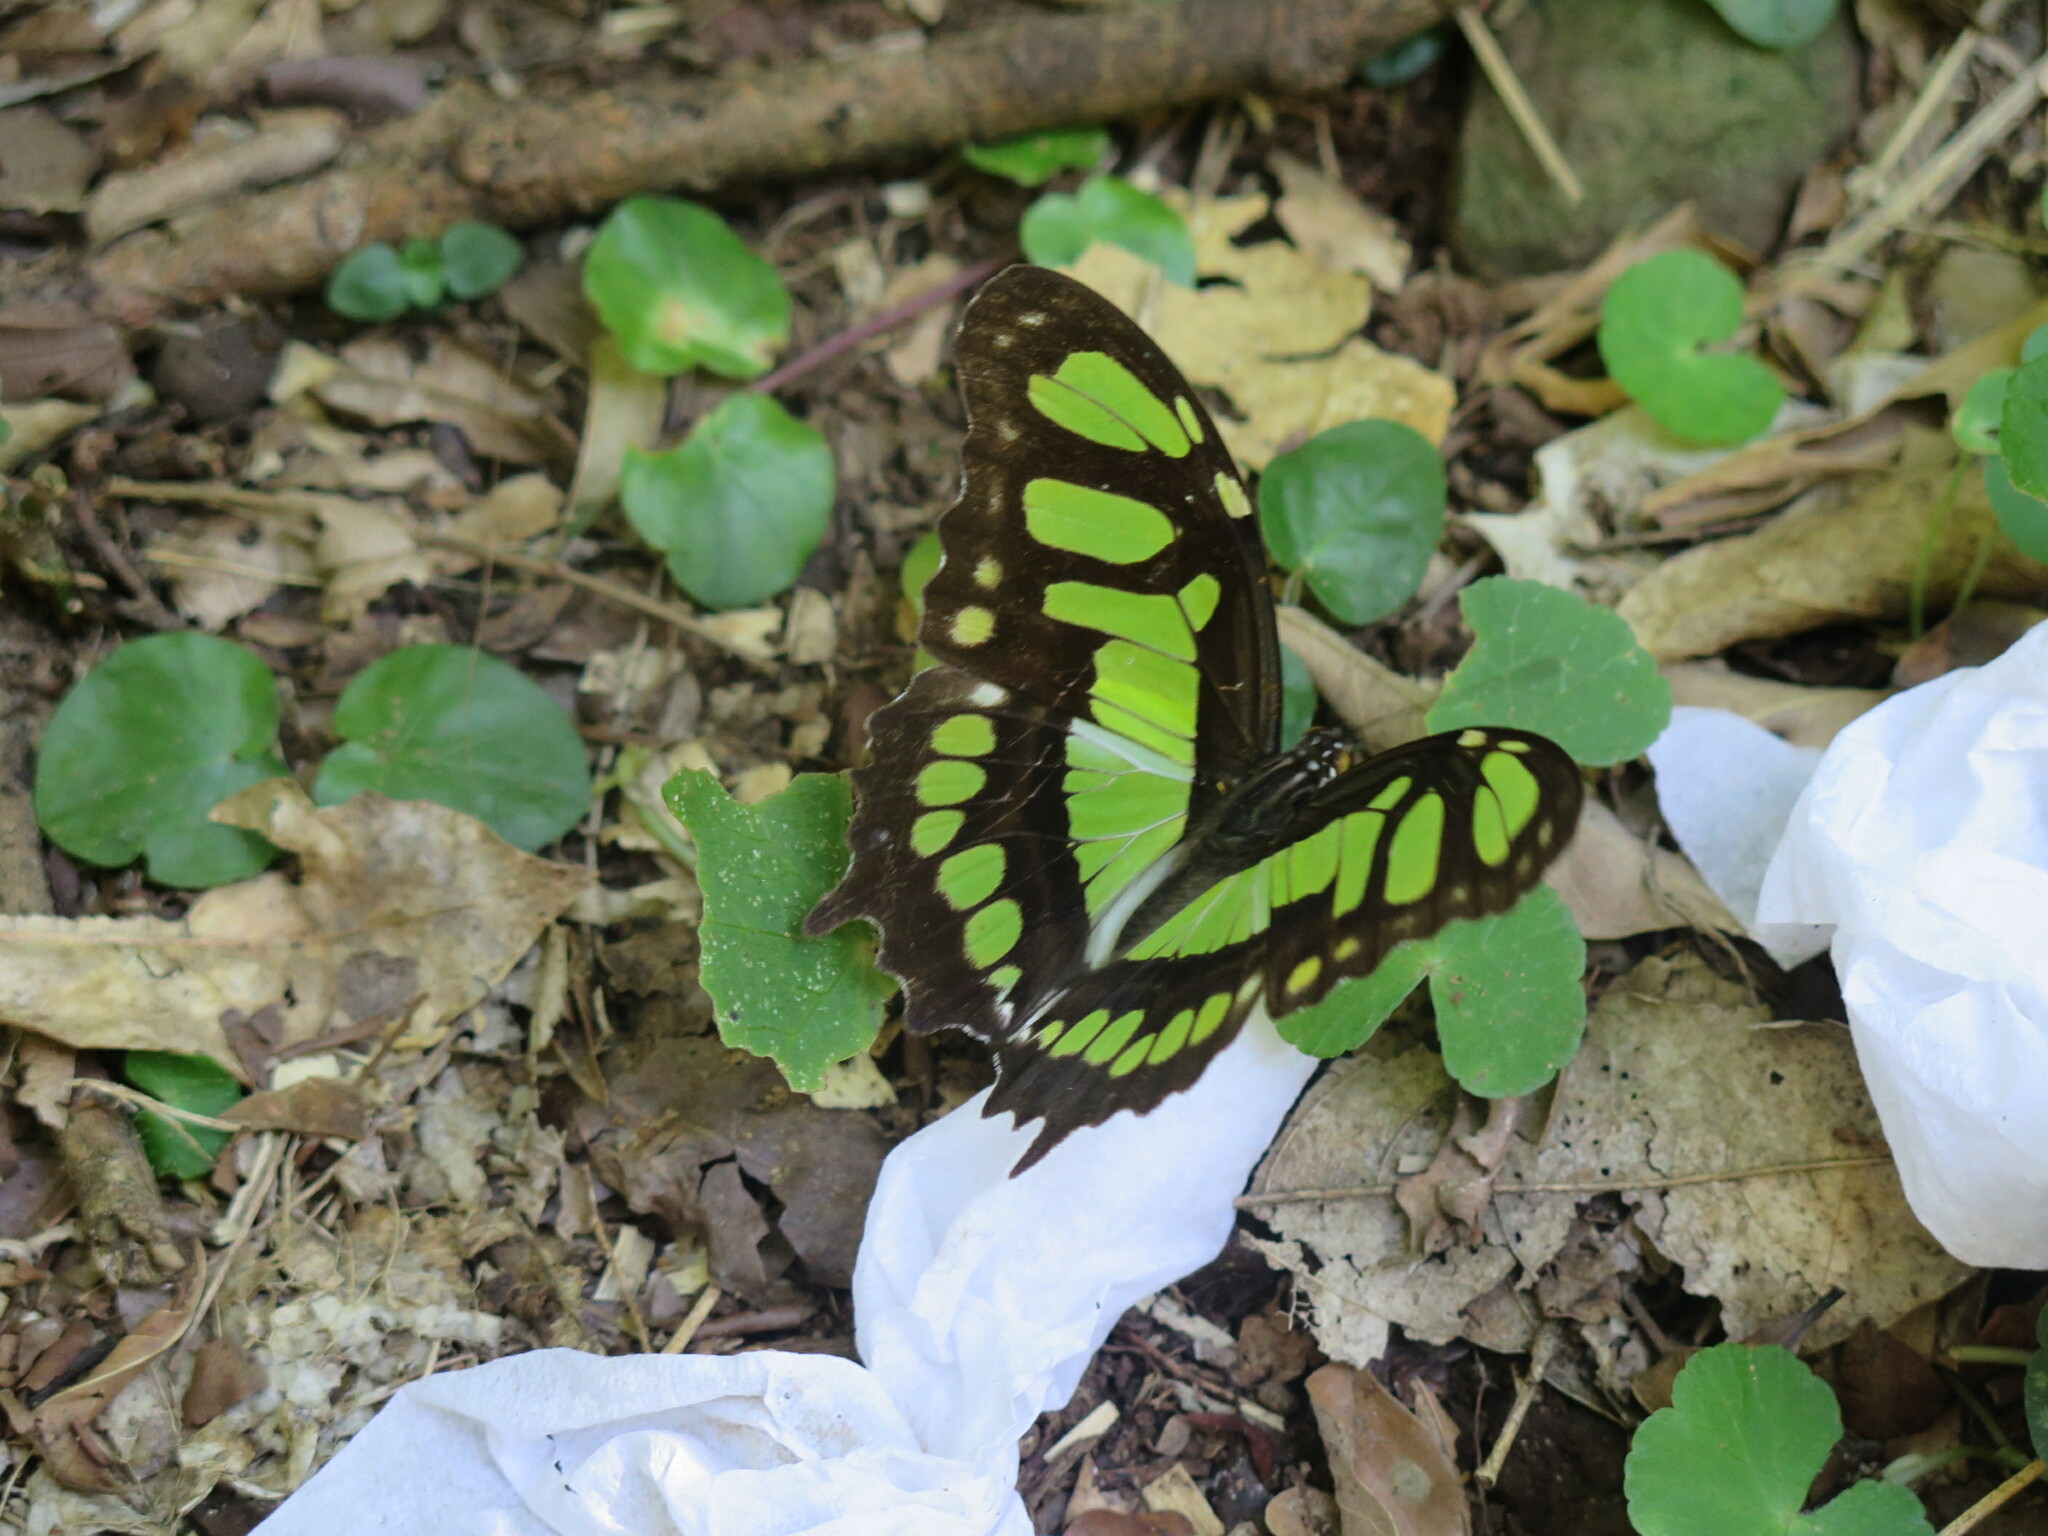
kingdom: Animalia
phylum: Arthropoda
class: Insecta
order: Lepidoptera
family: Nymphalidae
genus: Siproeta
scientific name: Siproeta stelenes
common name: Malachite
